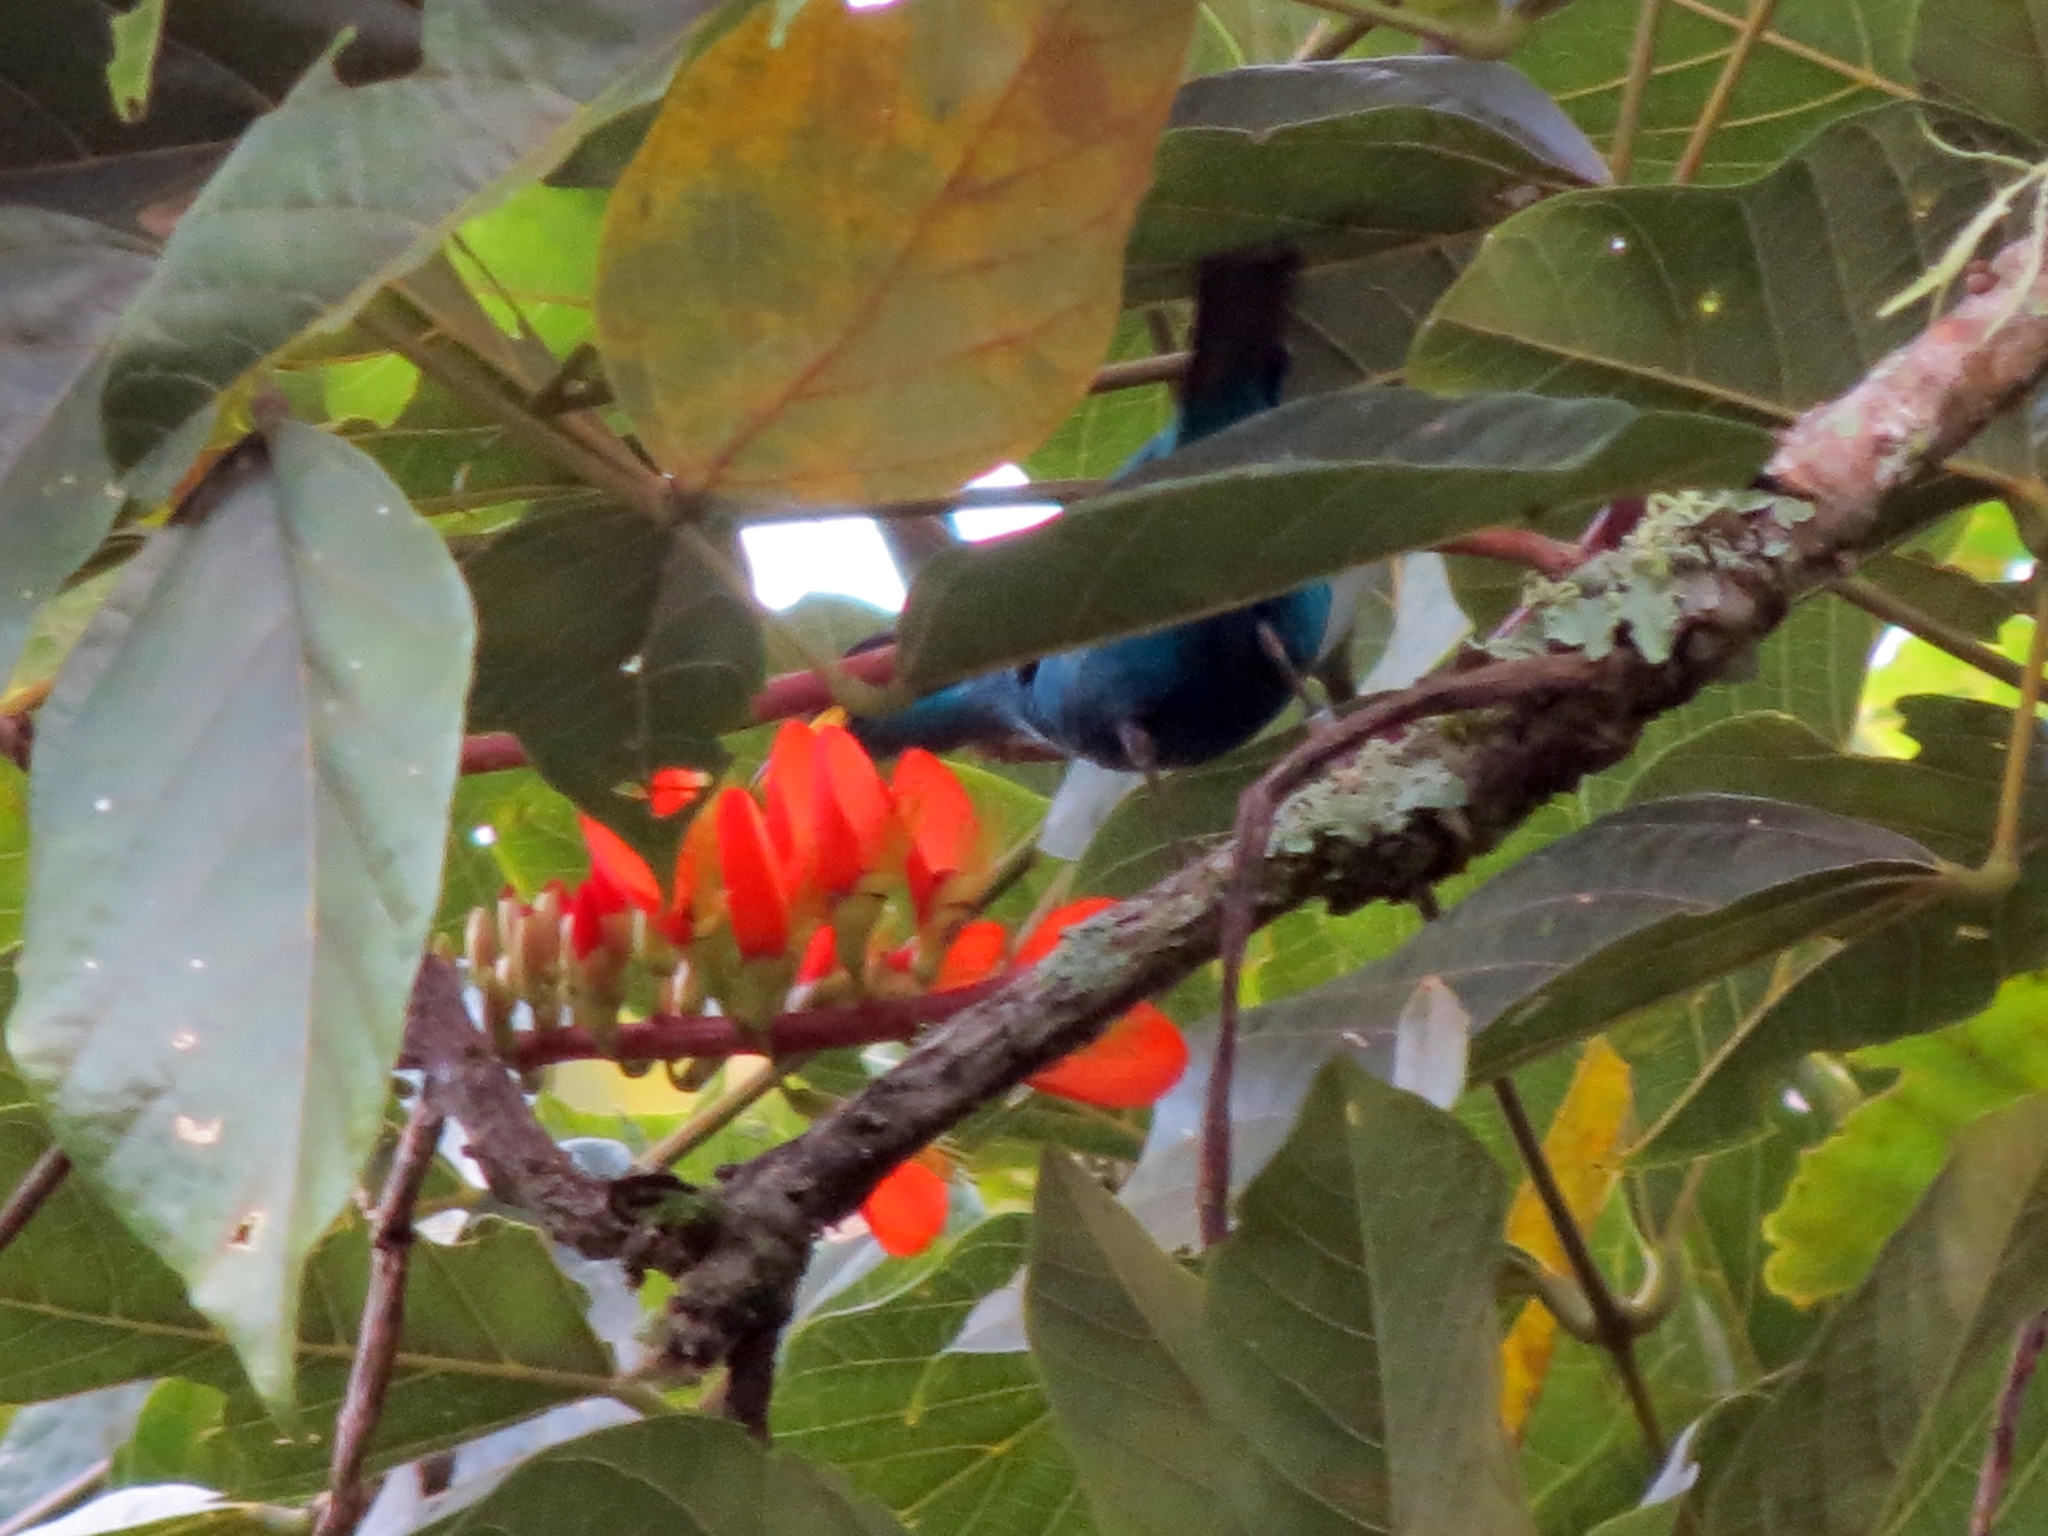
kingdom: Animalia
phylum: Chordata
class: Aves
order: Passeriformes
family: Thraupidae
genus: Chlorophanes
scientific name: Chlorophanes spiza
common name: Green honeycreeper
